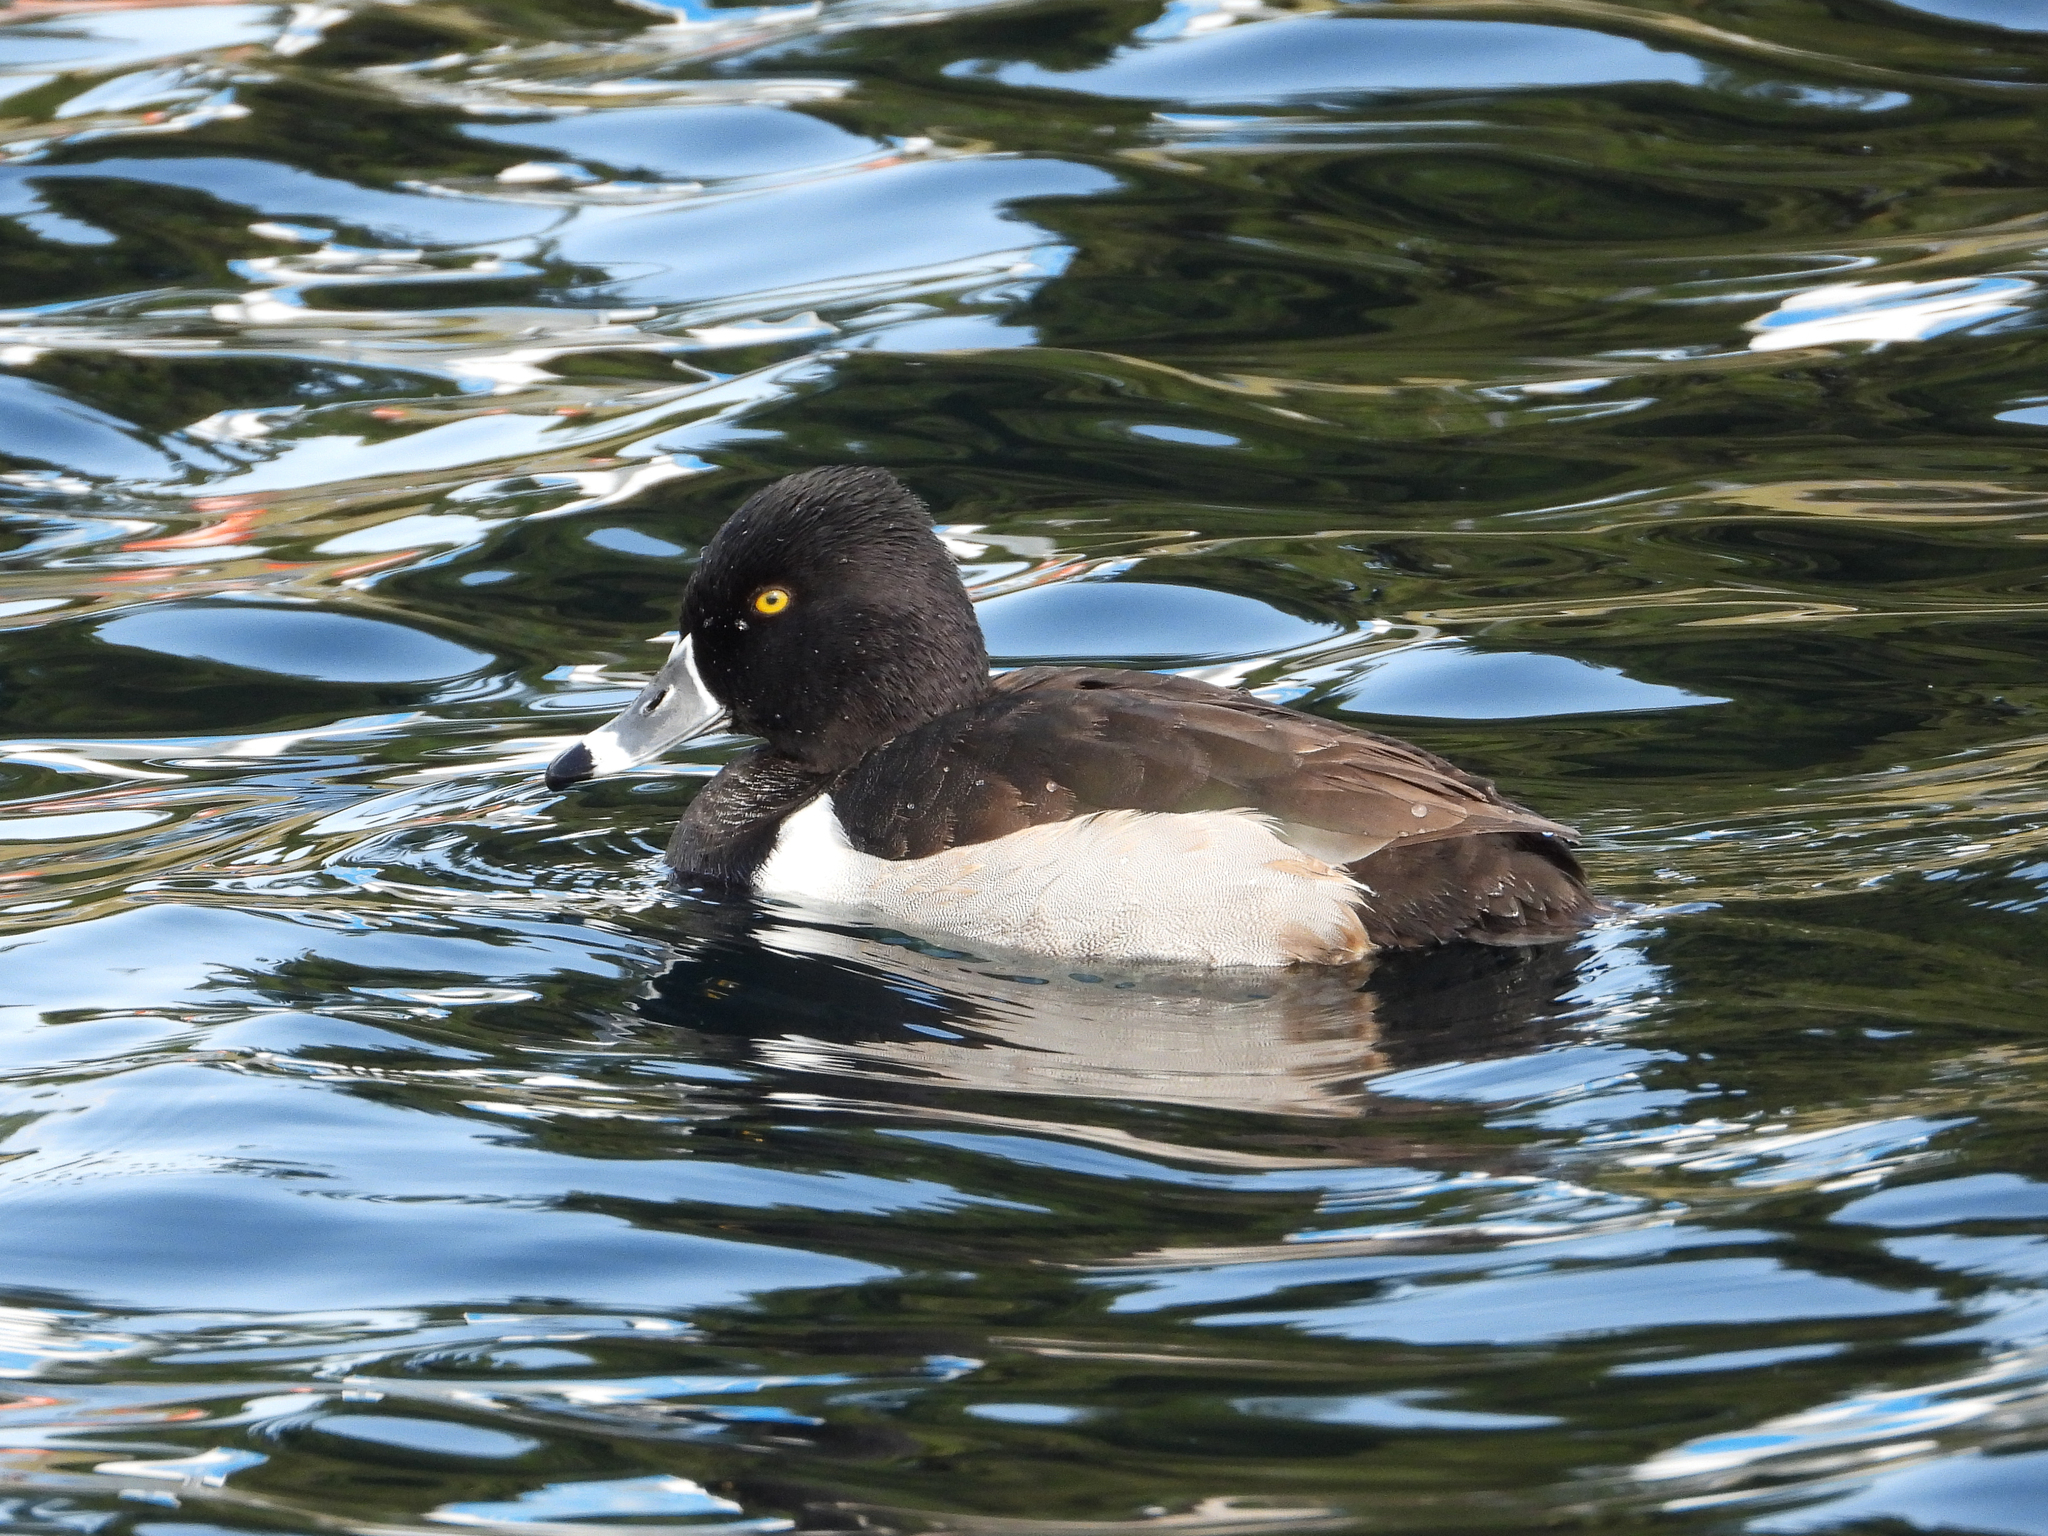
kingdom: Animalia
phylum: Chordata
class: Aves
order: Anseriformes
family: Anatidae
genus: Aythya
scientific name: Aythya collaris
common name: Ring-necked duck
